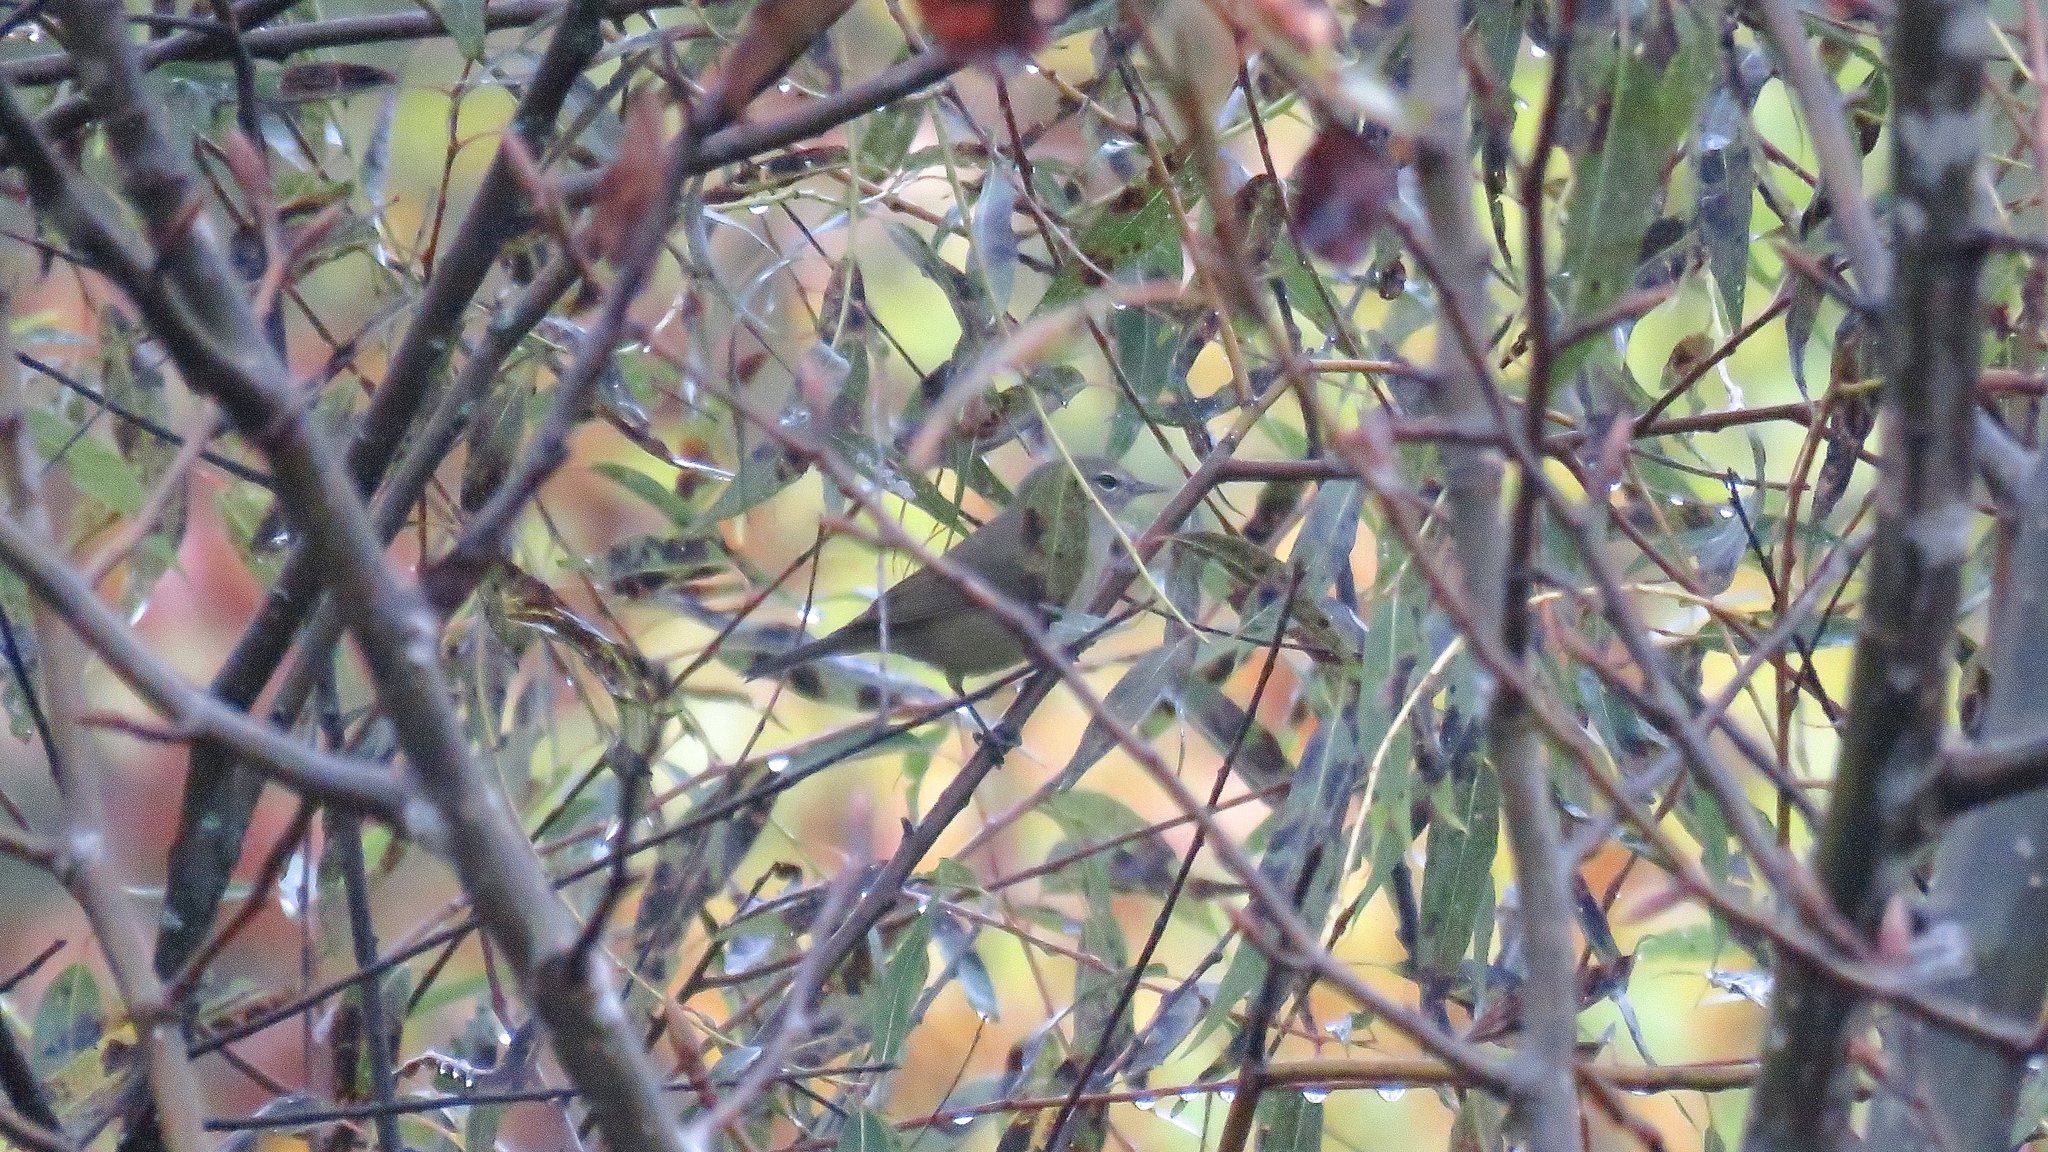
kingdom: Animalia
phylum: Chordata
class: Aves
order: Passeriformes
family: Parulidae
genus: Leiothlypis
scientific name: Leiothlypis celata
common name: Orange-crowned warbler
